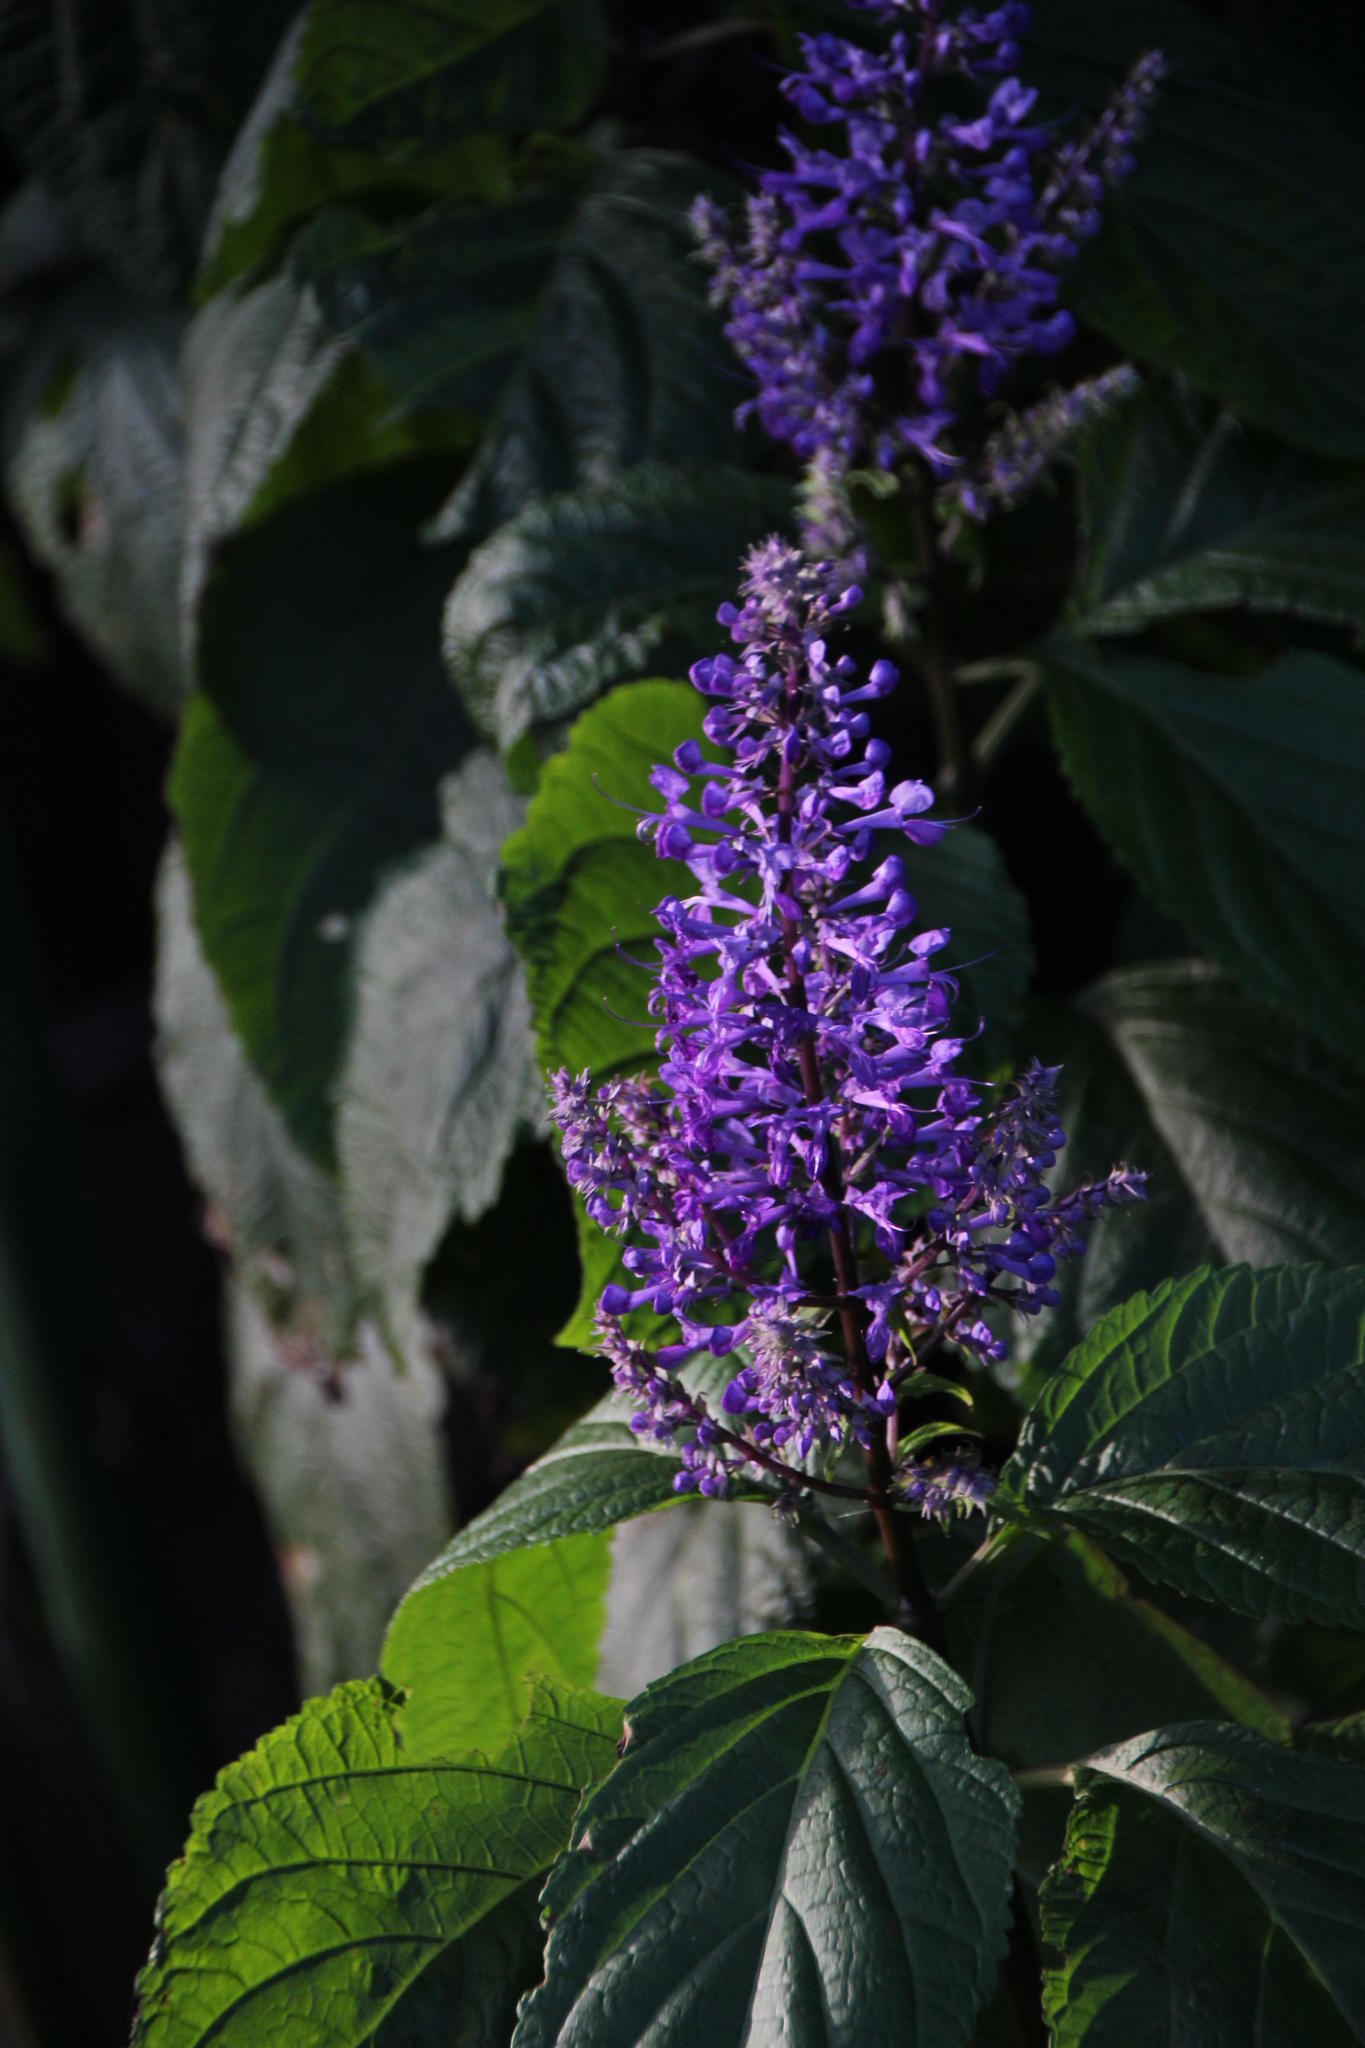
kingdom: Plantae
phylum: Tracheophyta
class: Magnoliopsida
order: Lamiales
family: Lamiaceae
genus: Plectranthus
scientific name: Plectranthus ecklonii
